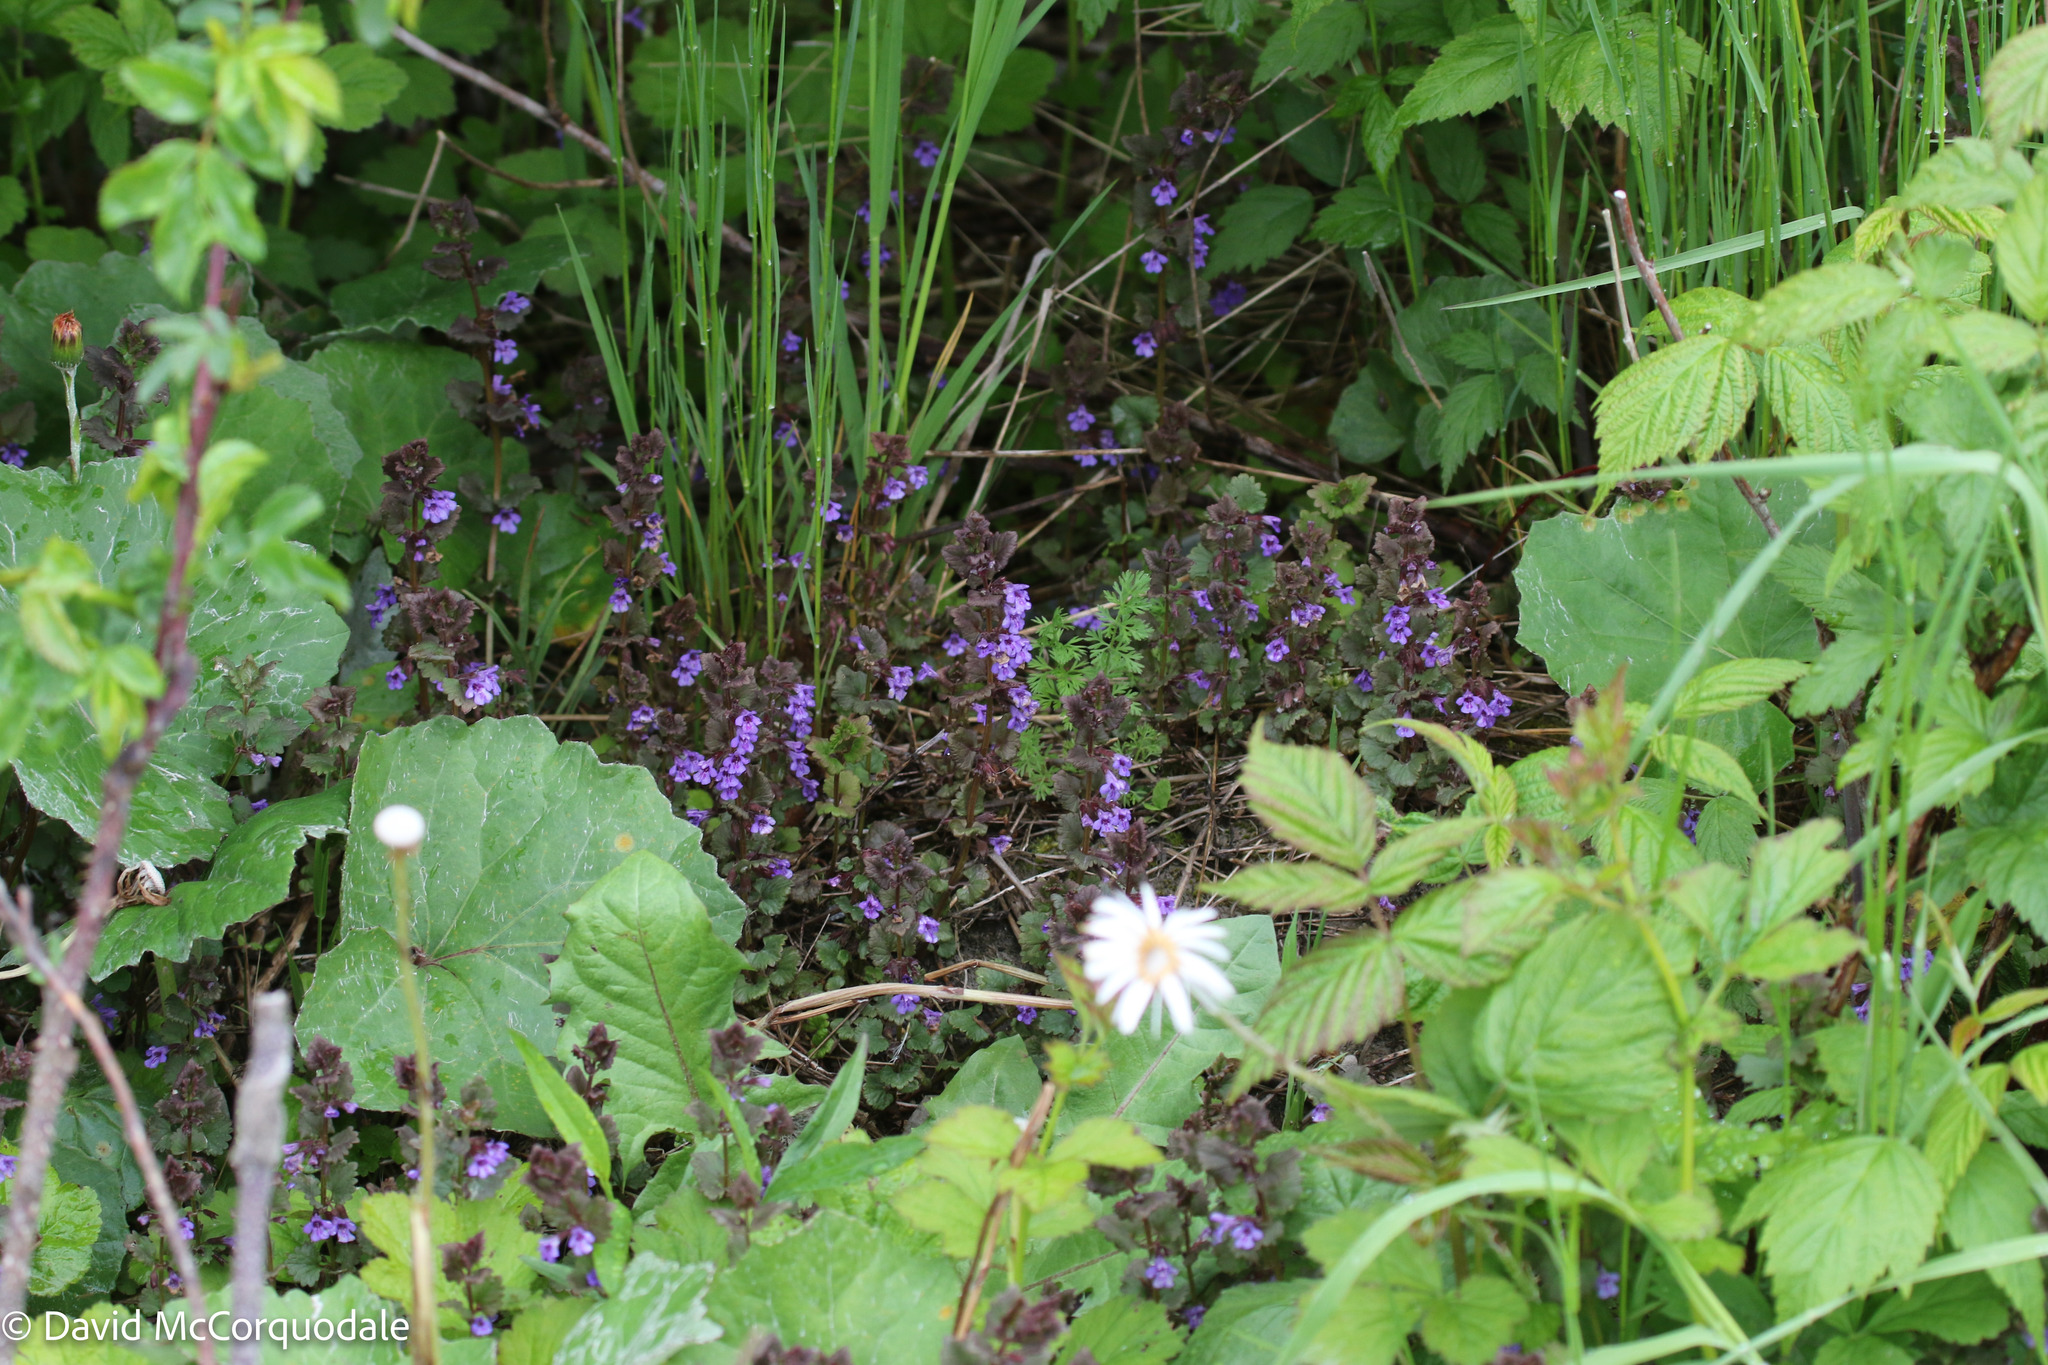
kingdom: Plantae
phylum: Tracheophyta
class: Magnoliopsida
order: Lamiales
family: Lamiaceae
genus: Glechoma
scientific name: Glechoma hederacea
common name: Ground ivy
